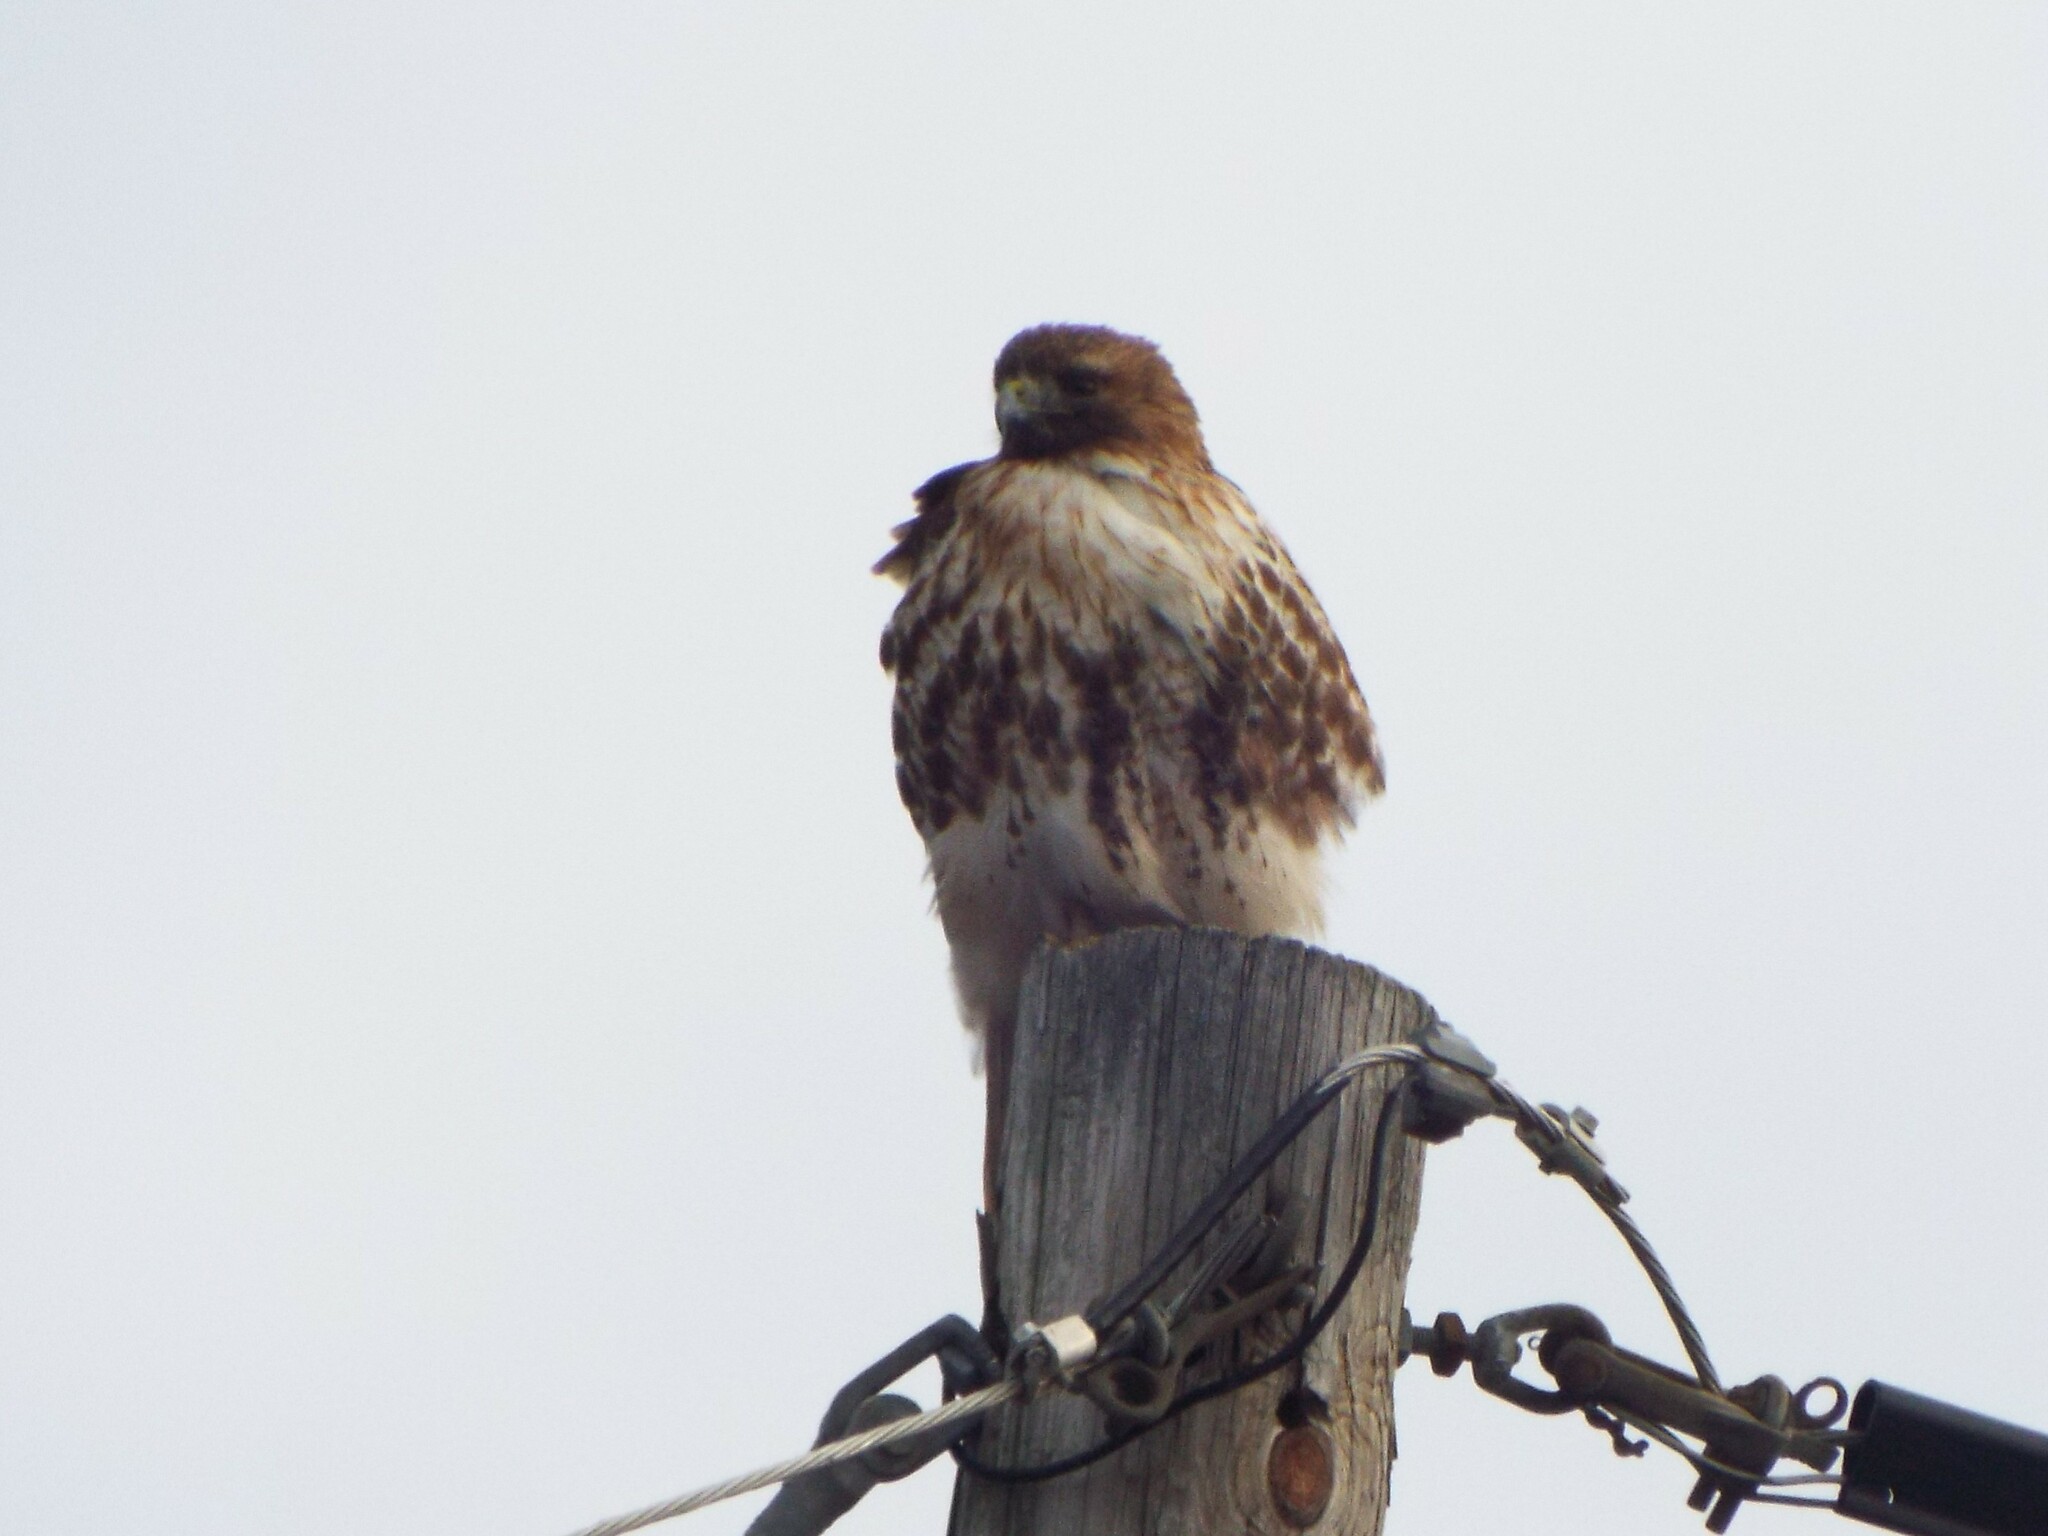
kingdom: Animalia
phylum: Chordata
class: Aves
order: Accipitriformes
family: Accipitridae
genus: Buteo
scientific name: Buteo jamaicensis
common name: Red-tailed hawk
